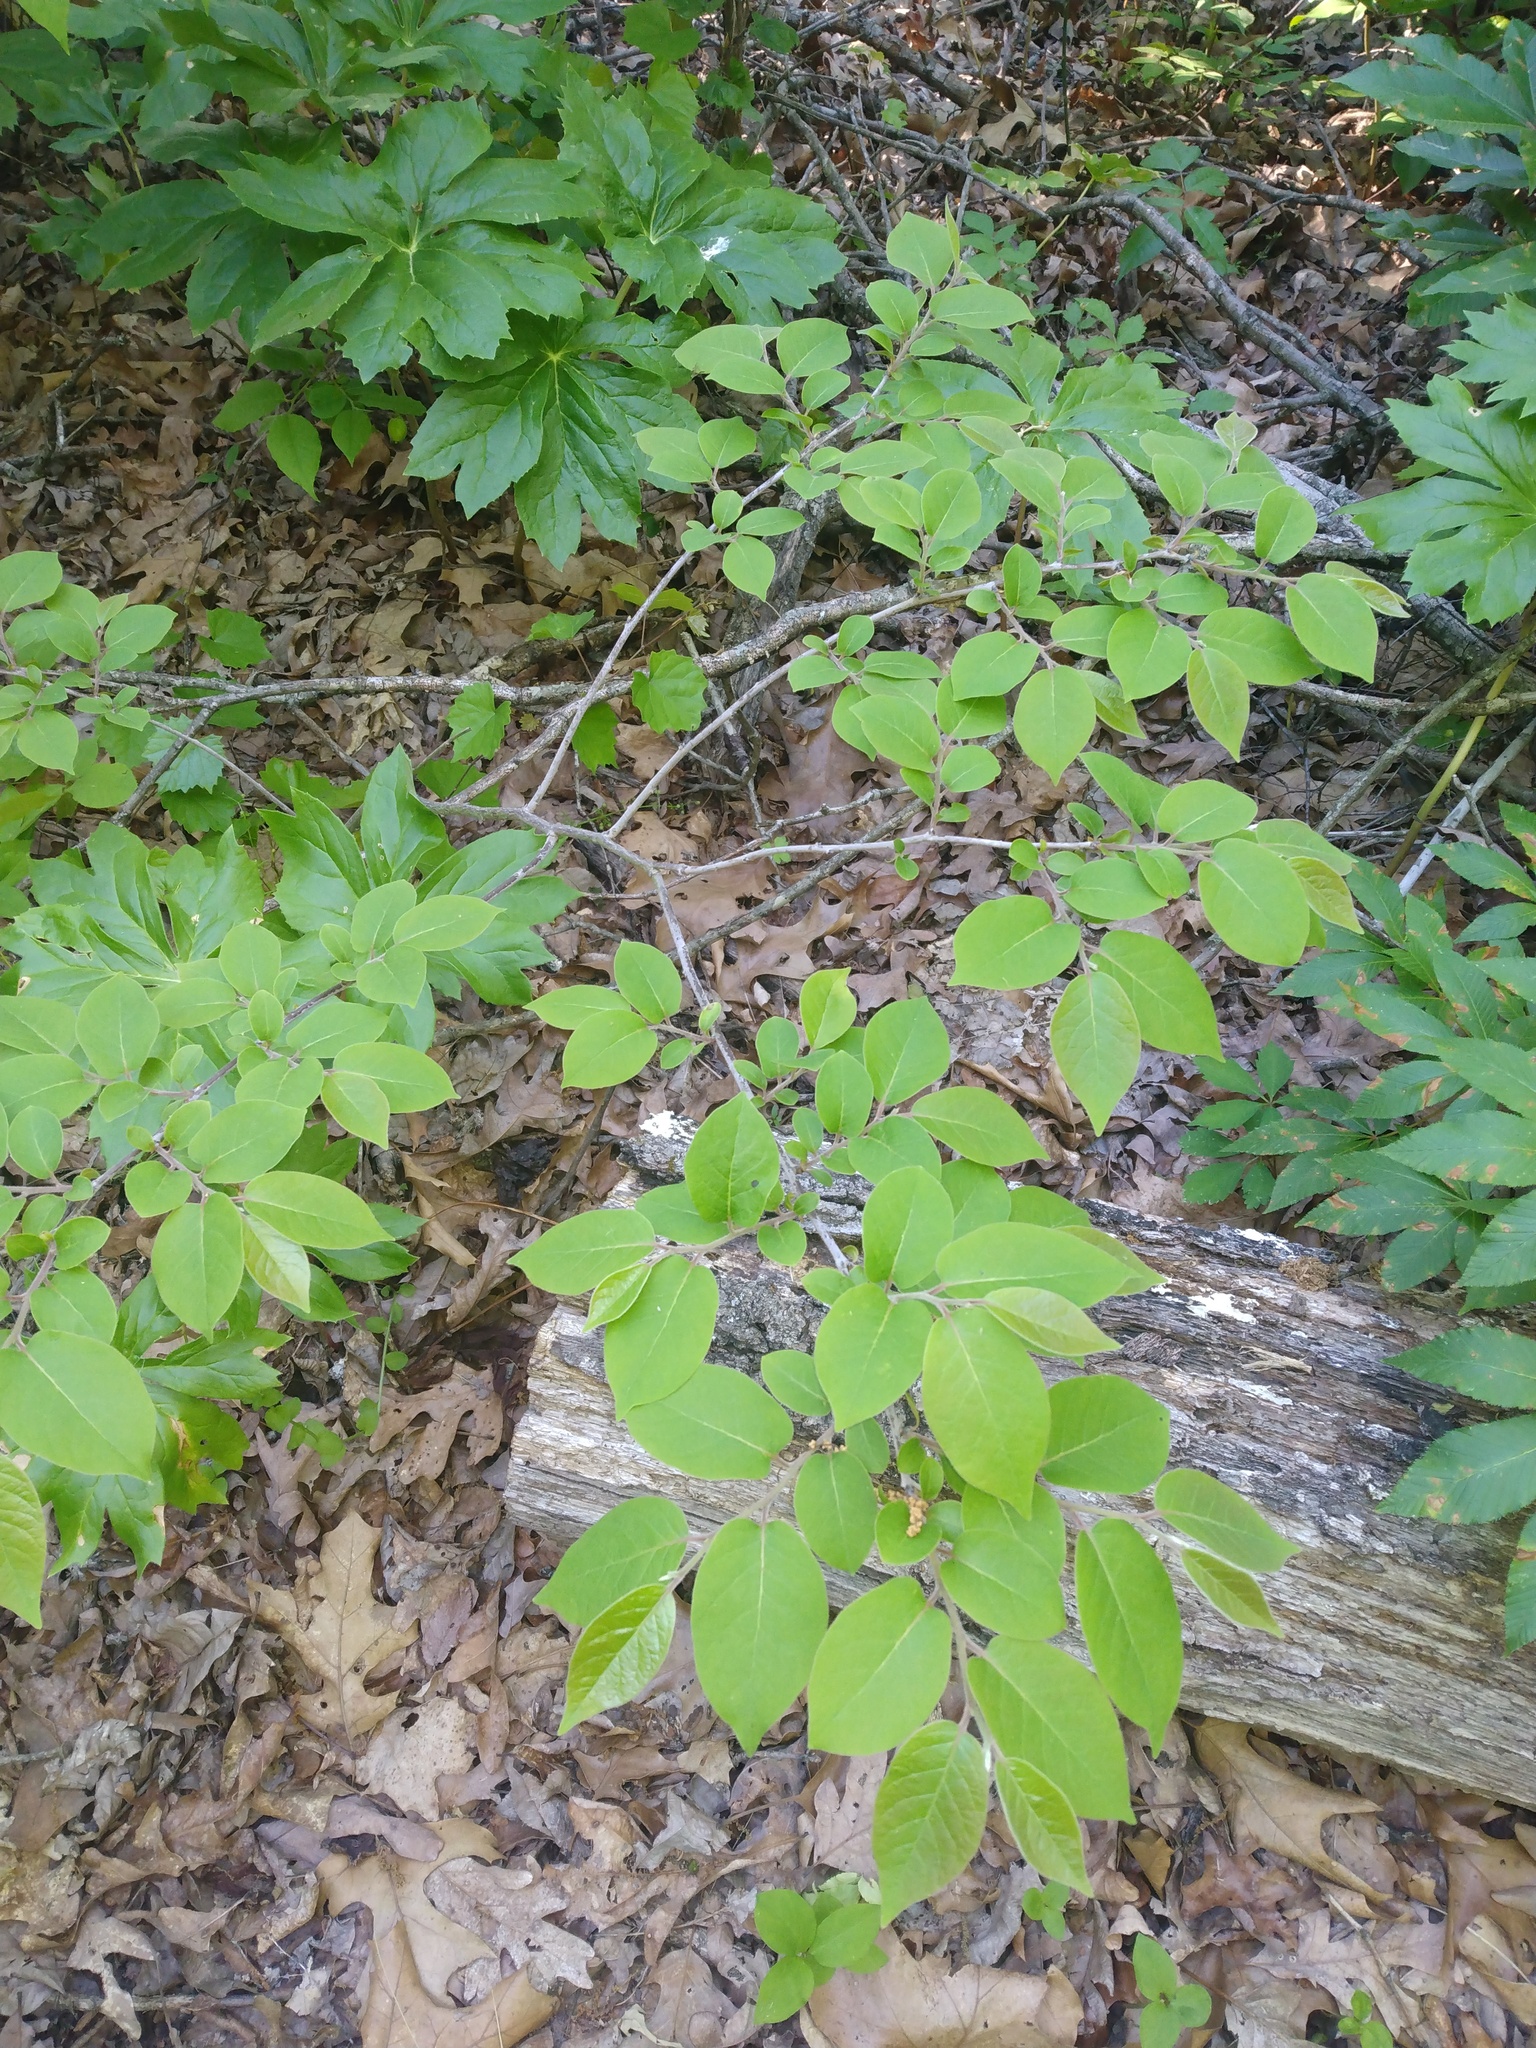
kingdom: Plantae
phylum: Tracheophyta
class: Magnoliopsida
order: Ericales
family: Ebenaceae
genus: Diospyros
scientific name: Diospyros virginiana
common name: Persimmon
